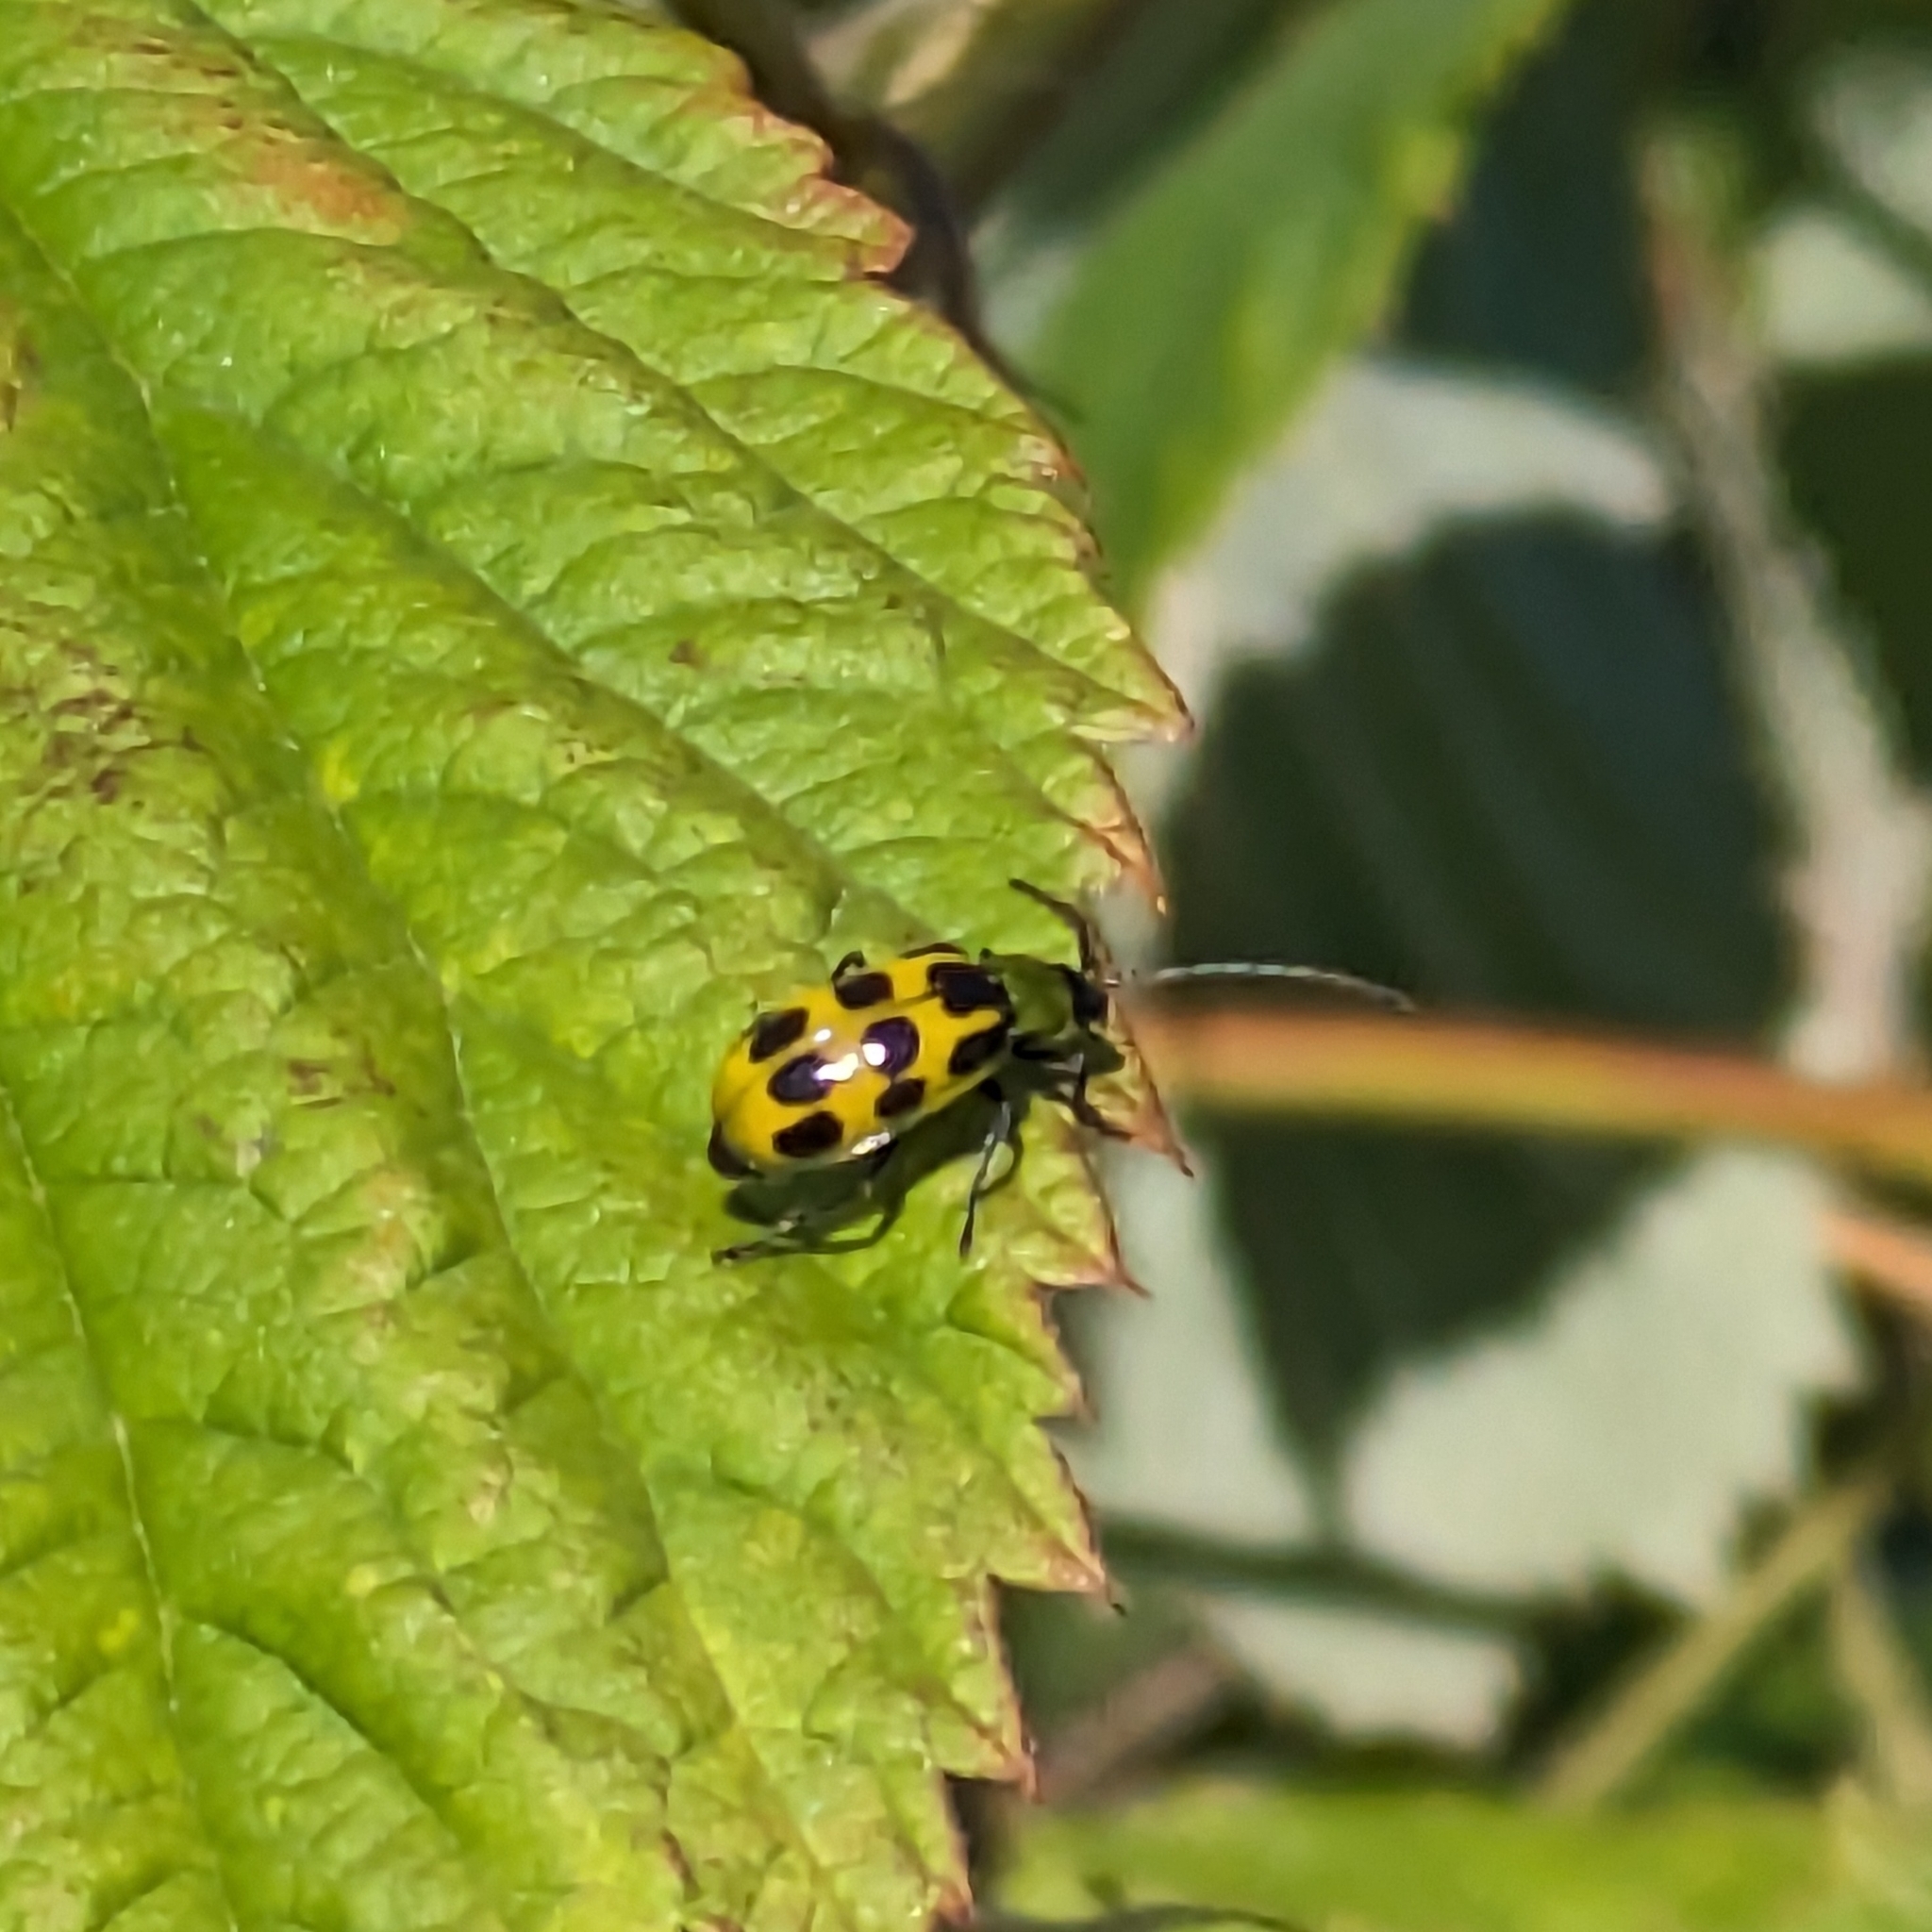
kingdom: Animalia
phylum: Arthropoda
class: Insecta
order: Coleoptera
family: Chrysomelidae
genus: Diabrotica
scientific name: Diabrotica undecimpunctata
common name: Spotted cucumber beetle
